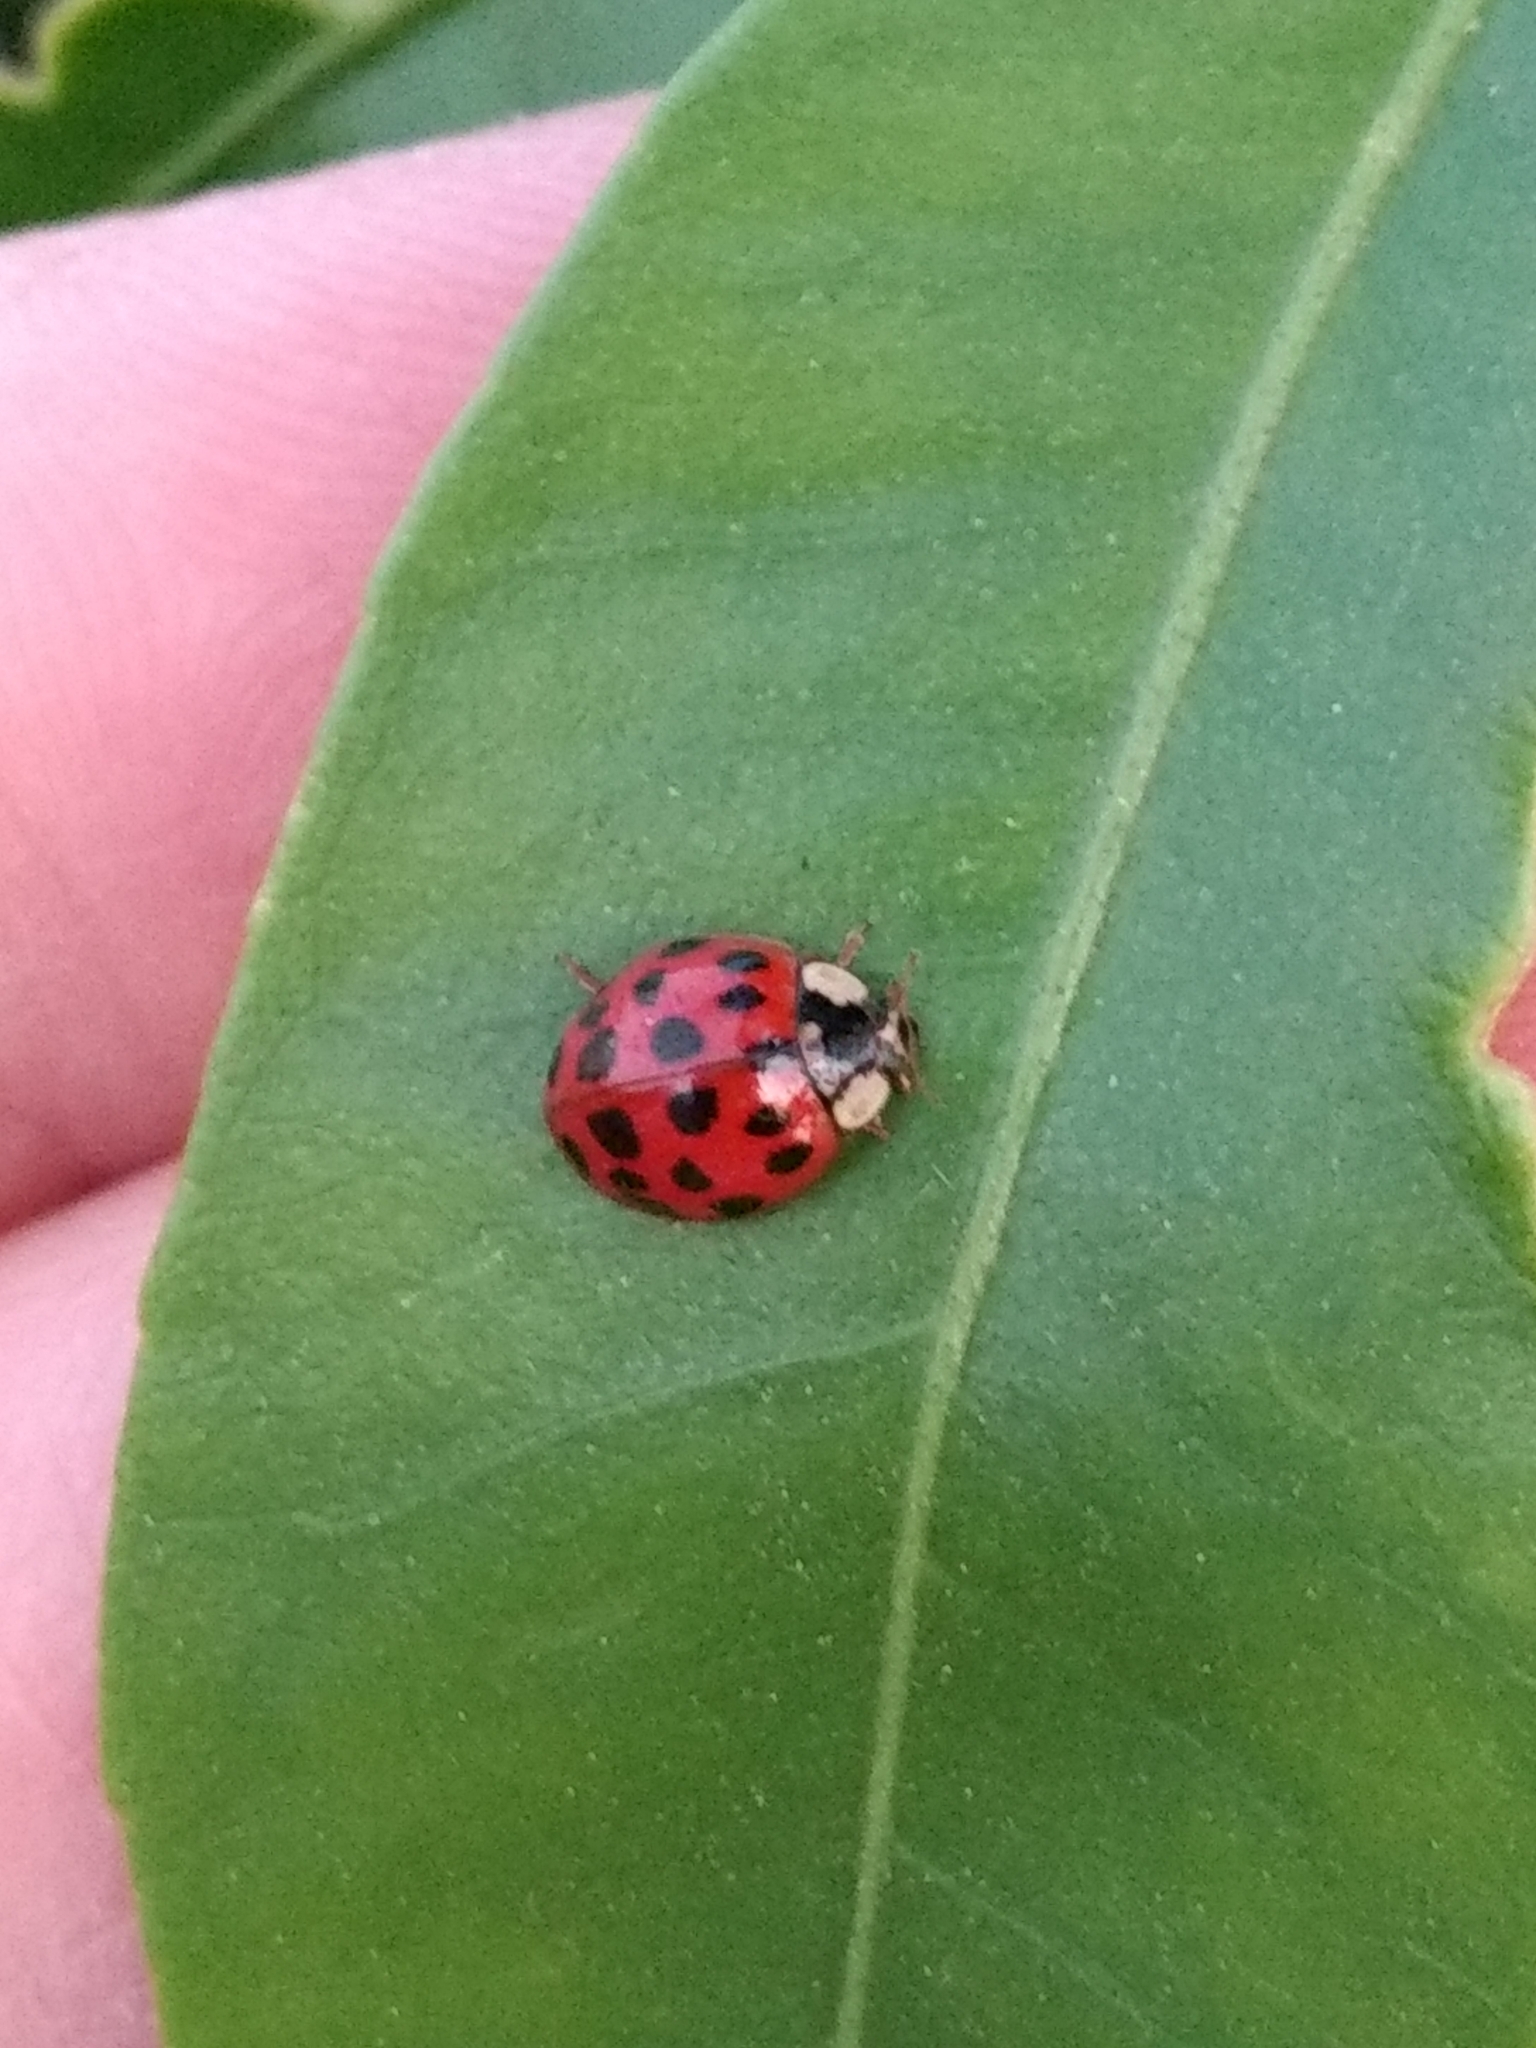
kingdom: Animalia
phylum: Arthropoda
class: Insecta
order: Coleoptera
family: Coccinellidae
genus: Harmonia
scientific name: Harmonia axyridis
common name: Harlequin ladybird
